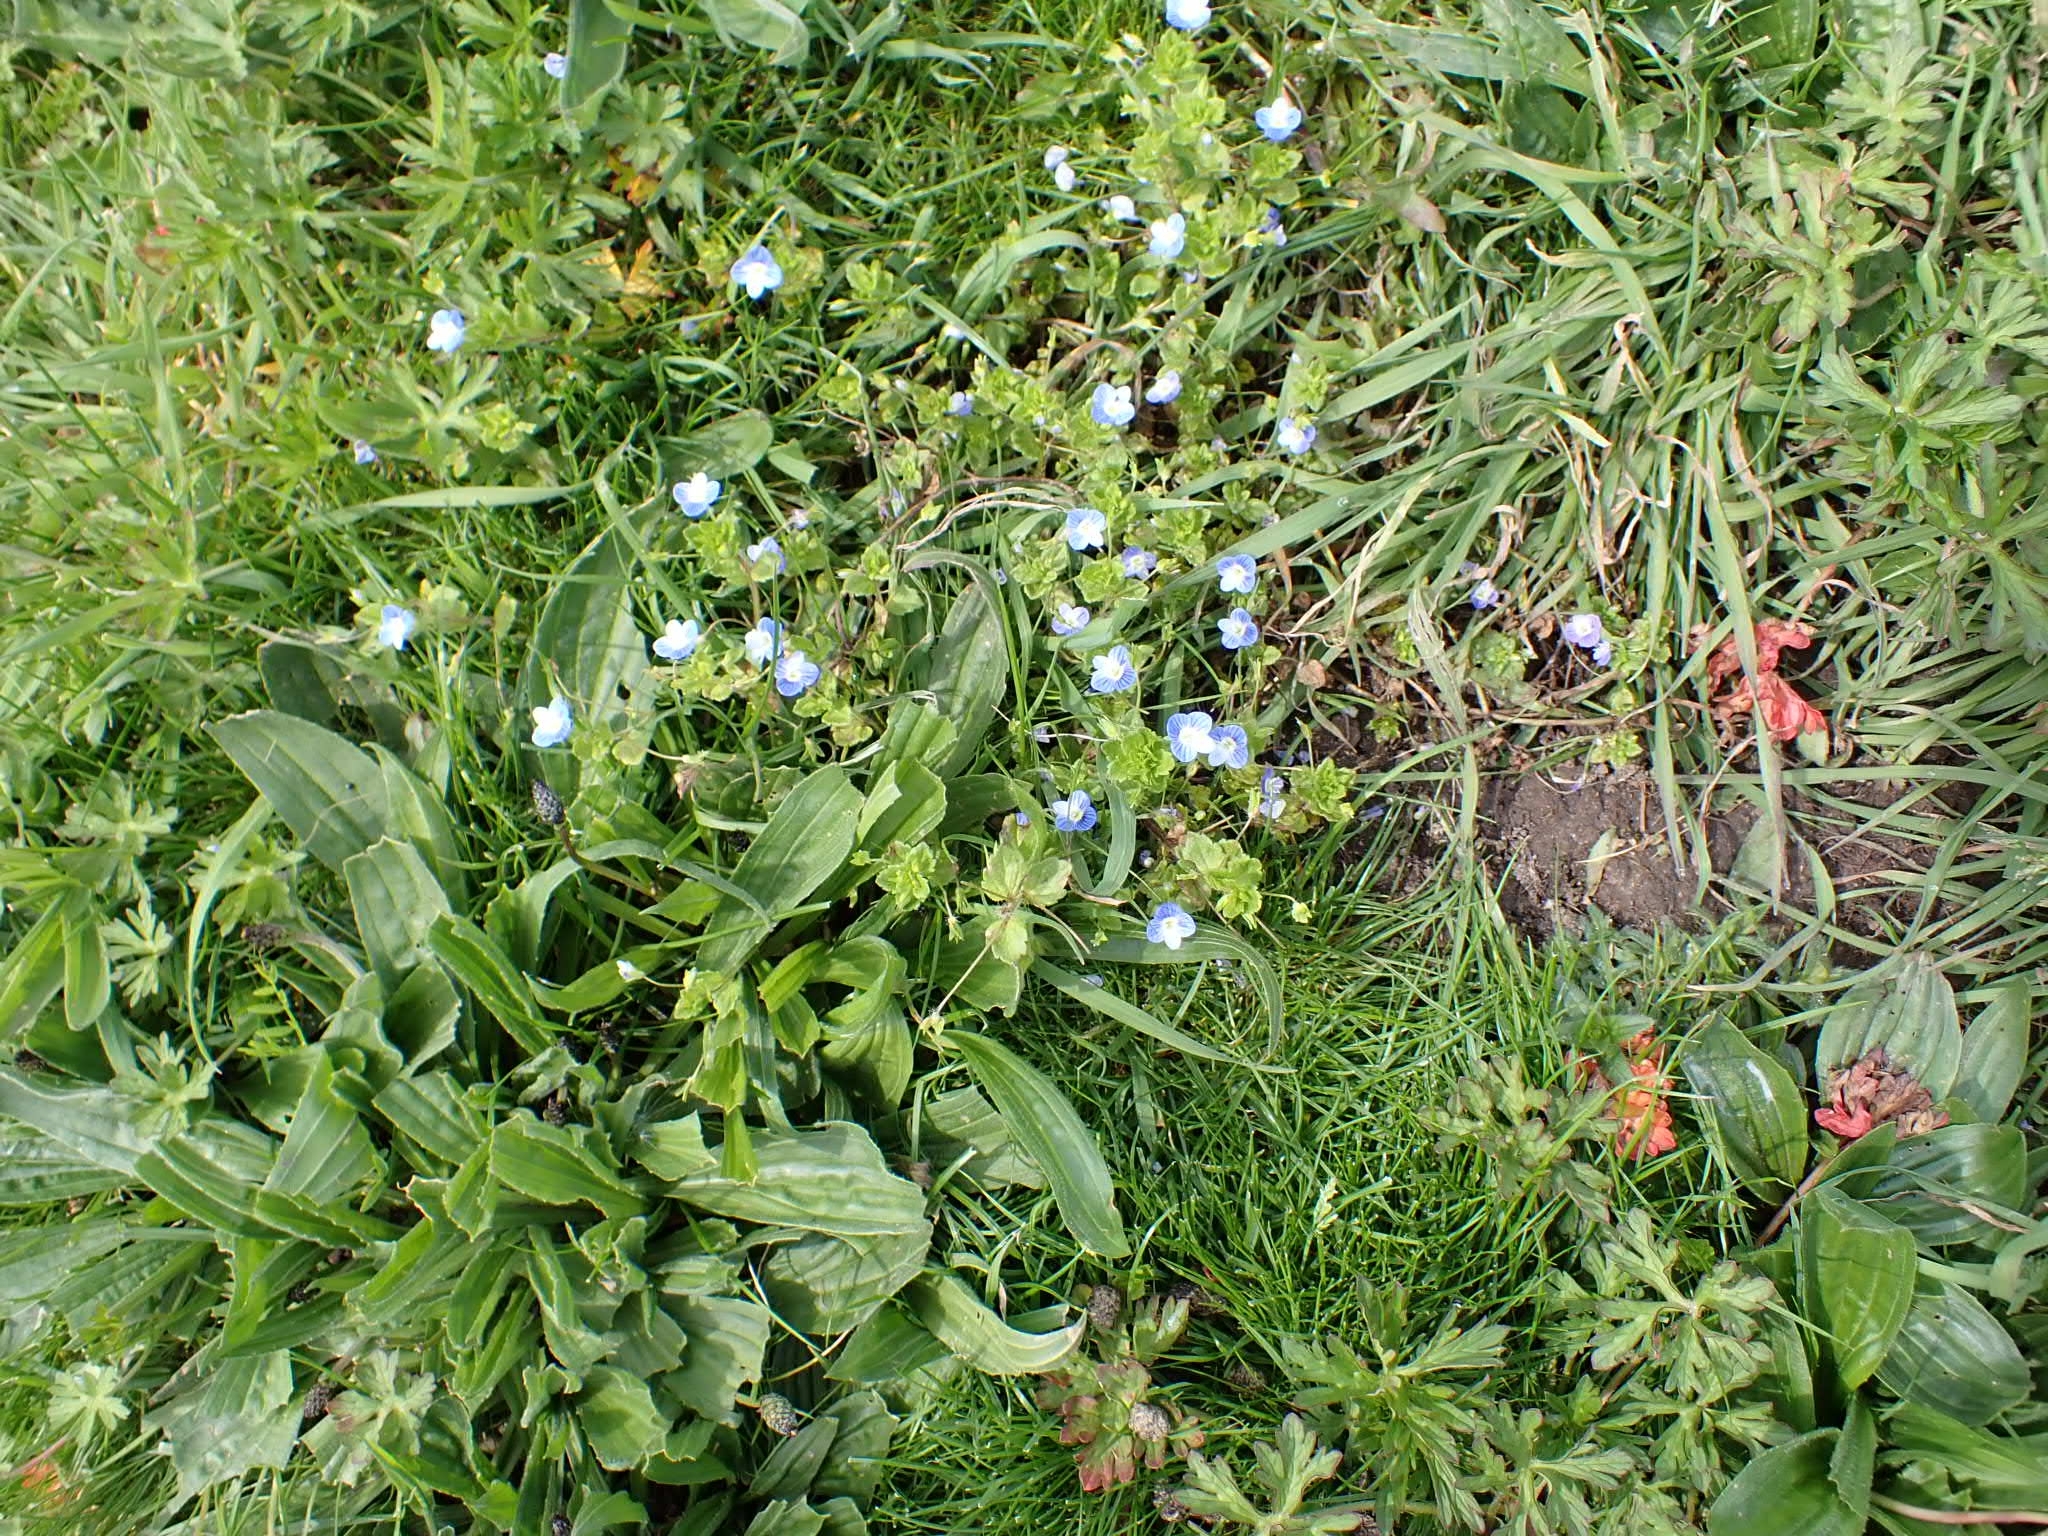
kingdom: Plantae
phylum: Tracheophyta
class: Magnoliopsida
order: Lamiales
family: Plantaginaceae
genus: Veronica
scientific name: Veronica persica
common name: Common field-speedwell
